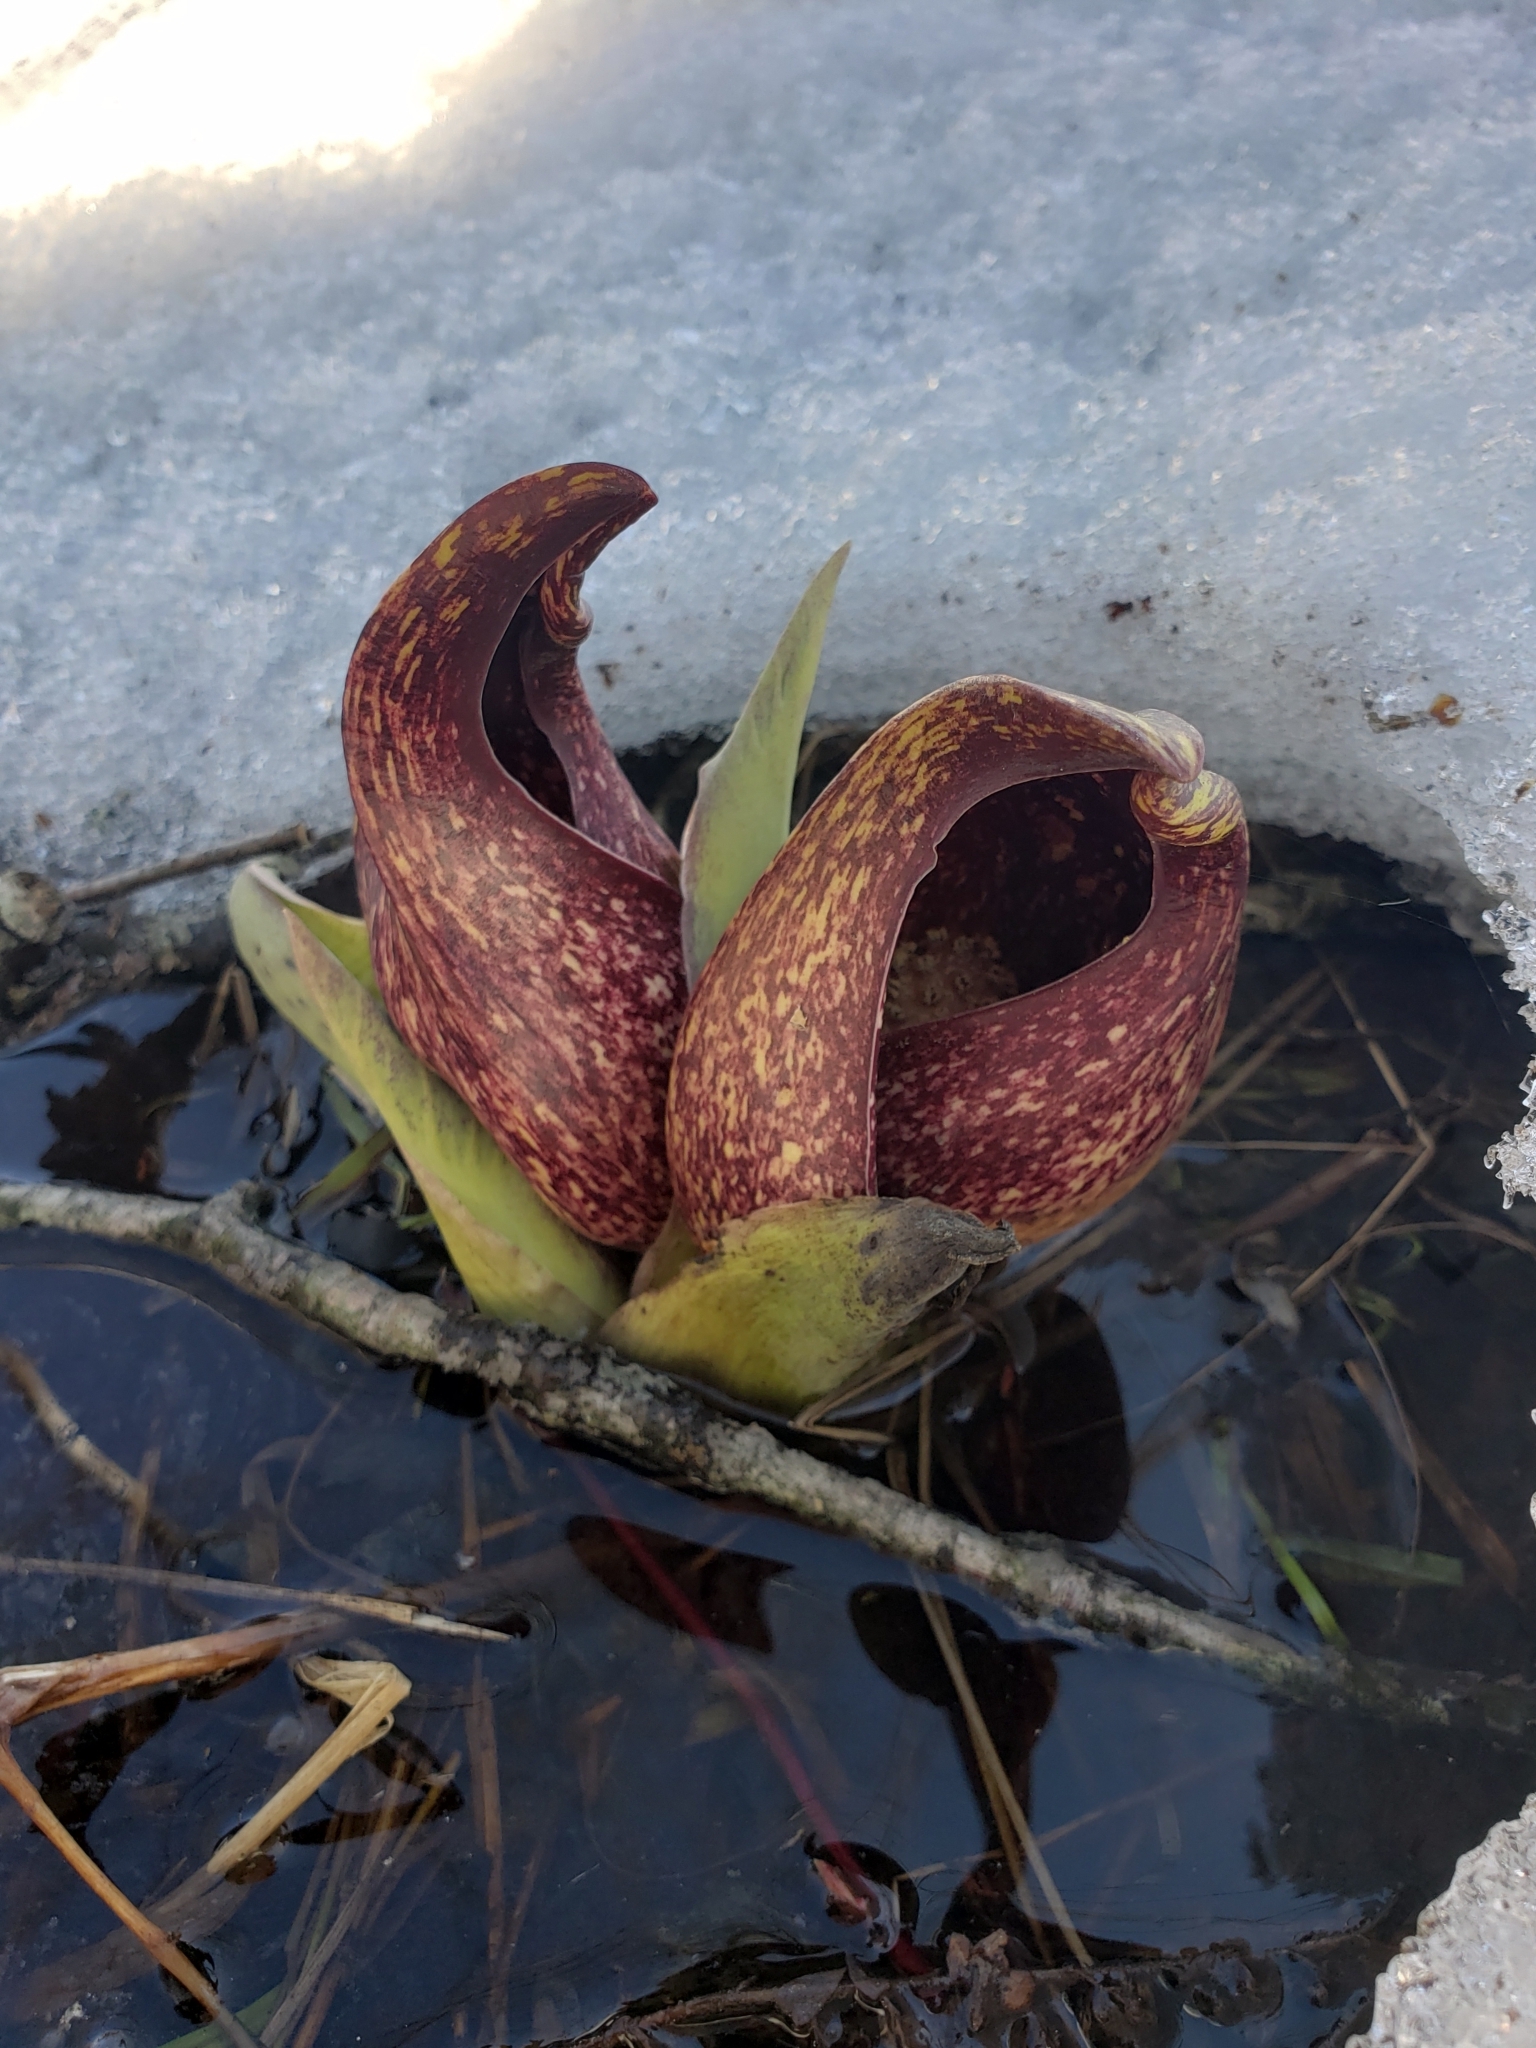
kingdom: Plantae
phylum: Tracheophyta
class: Liliopsida
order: Alismatales
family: Araceae
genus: Symplocarpus
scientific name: Symplocarpus foetidus
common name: Eastern skunk cabbage
